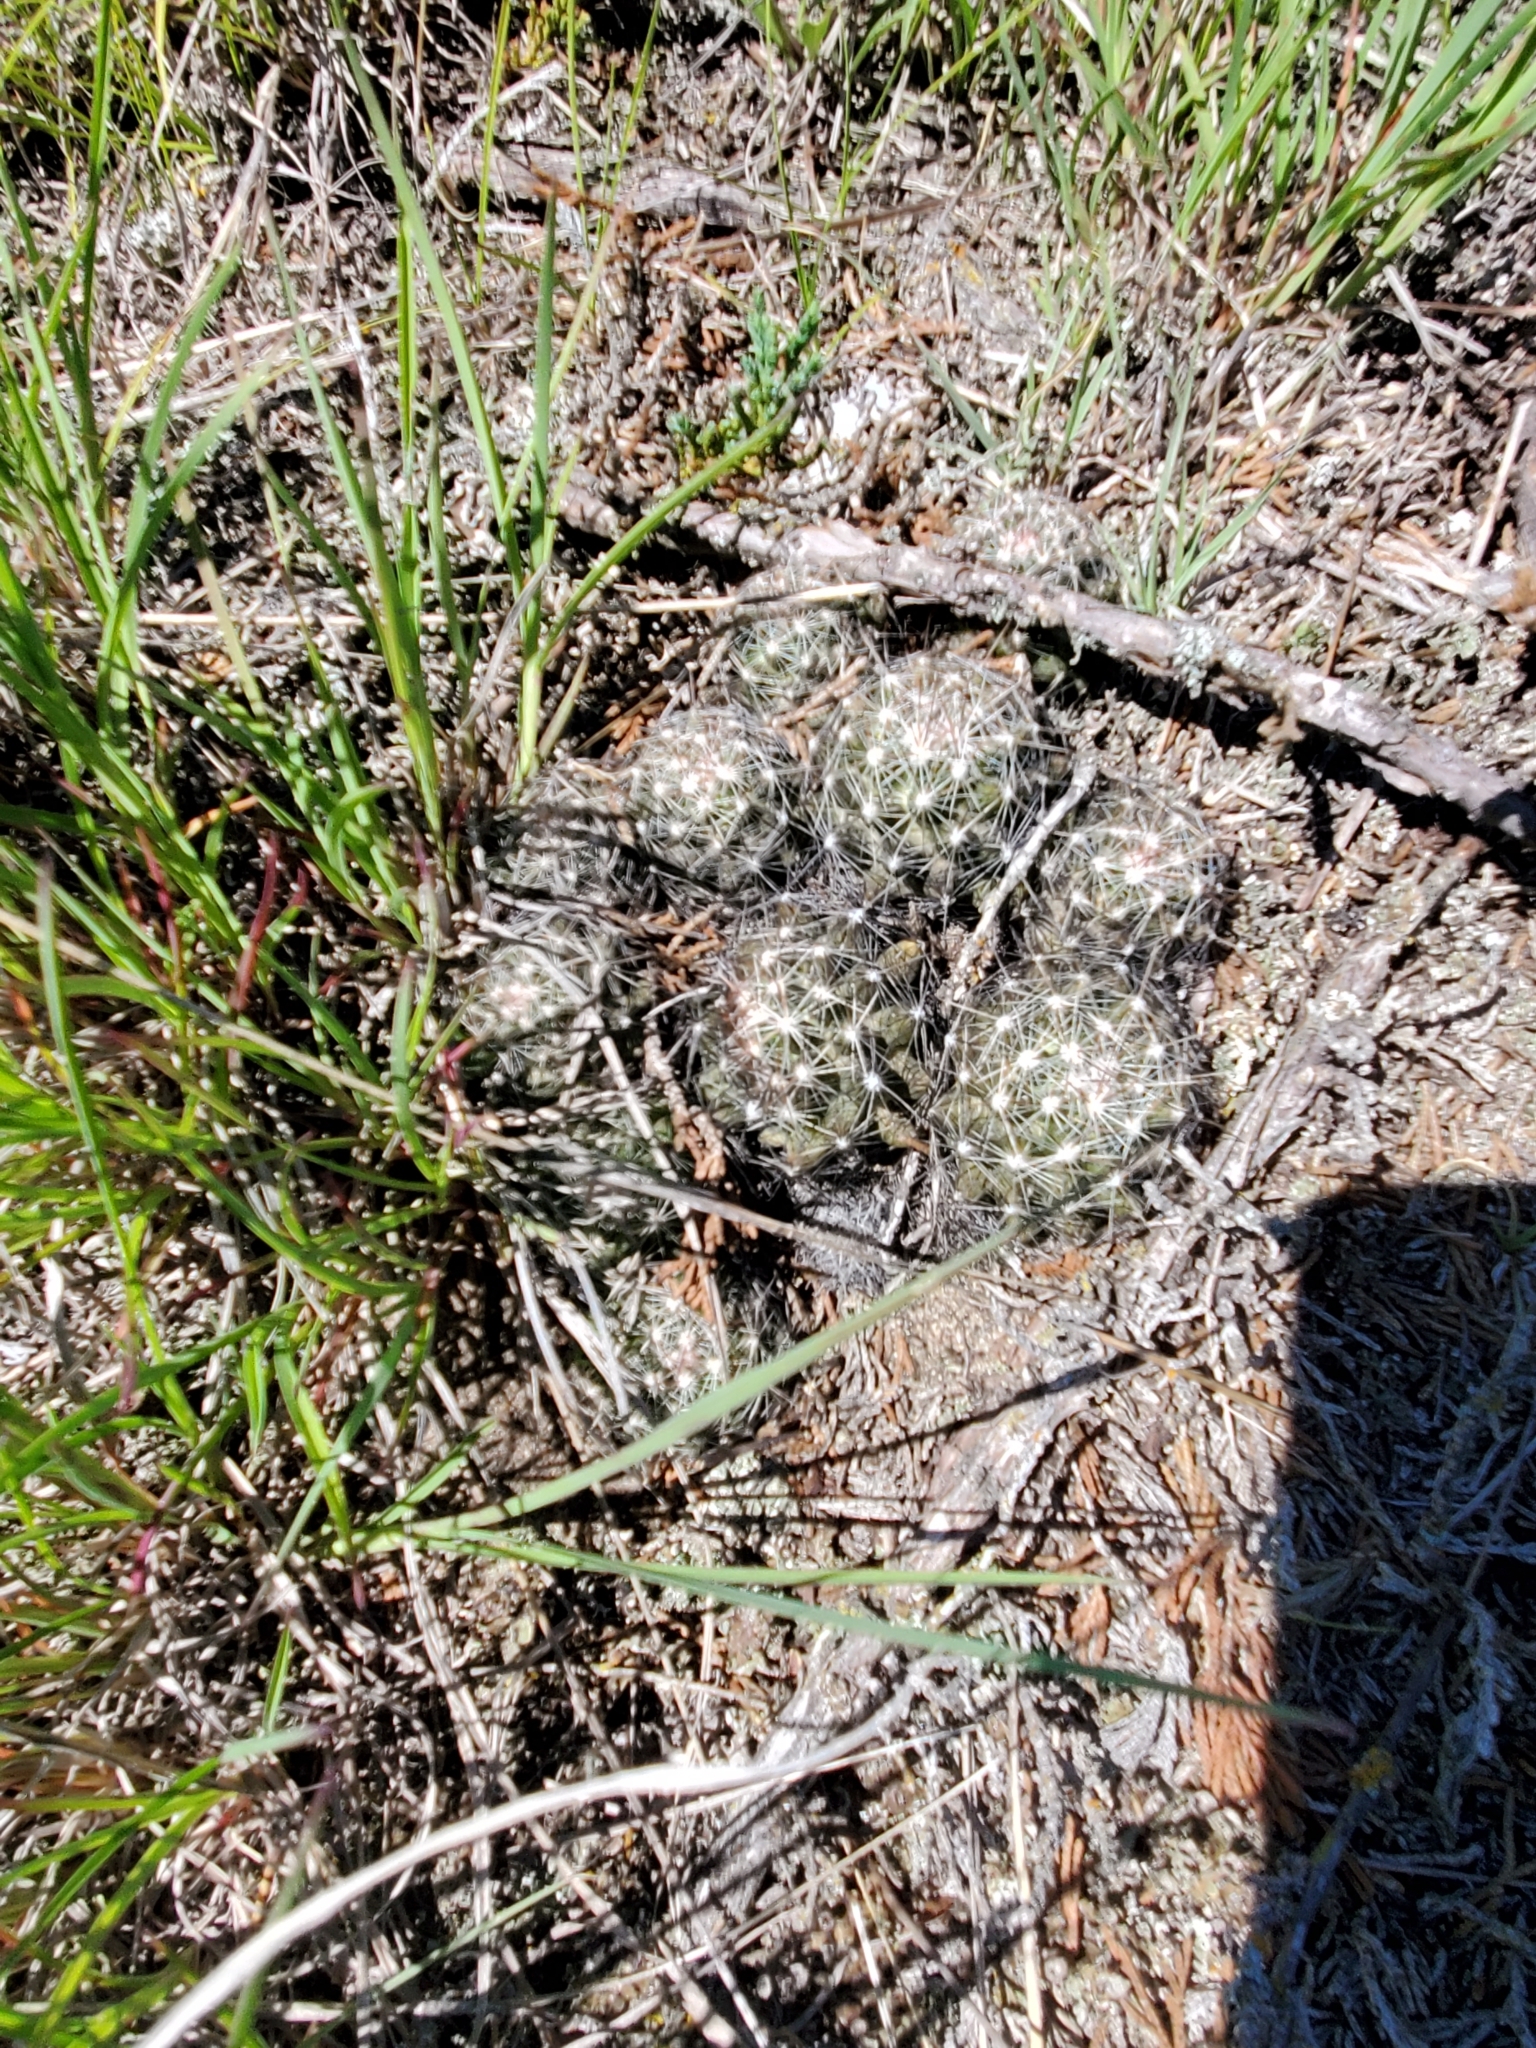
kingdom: Plantae
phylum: Tracheophyta
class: Magnoliopsida
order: Caryophyllales
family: Cactaceae
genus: Pelecyphora
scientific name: Pelecyphora vivipara
